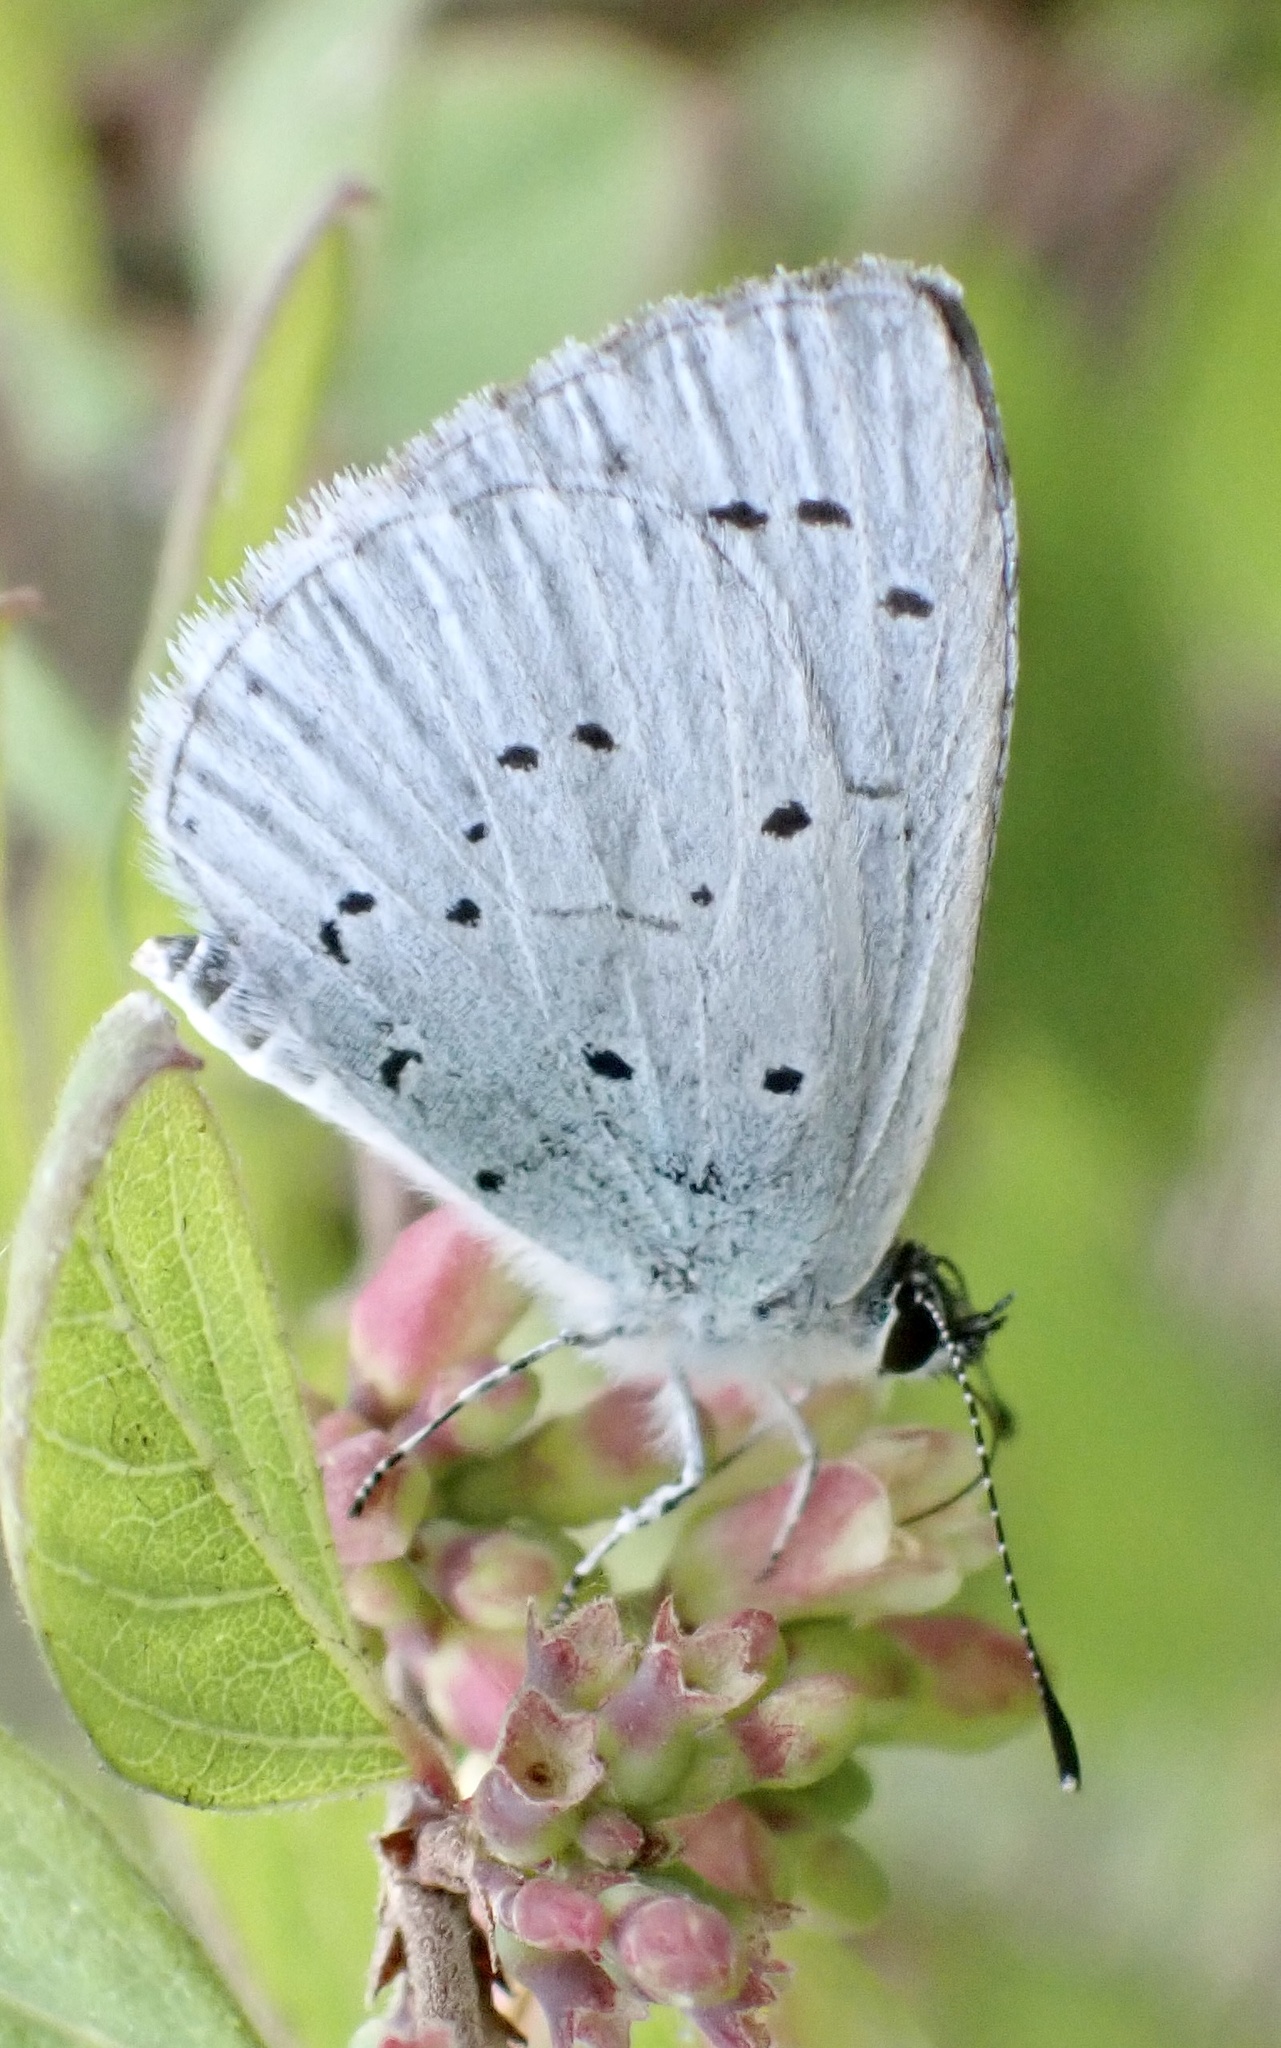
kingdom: Animalia
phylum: Arthropoda
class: Insecta
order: Lepidoptera
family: Lycaenidae
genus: Celastrina
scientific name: Celastrina argiolus
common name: Holly blue
